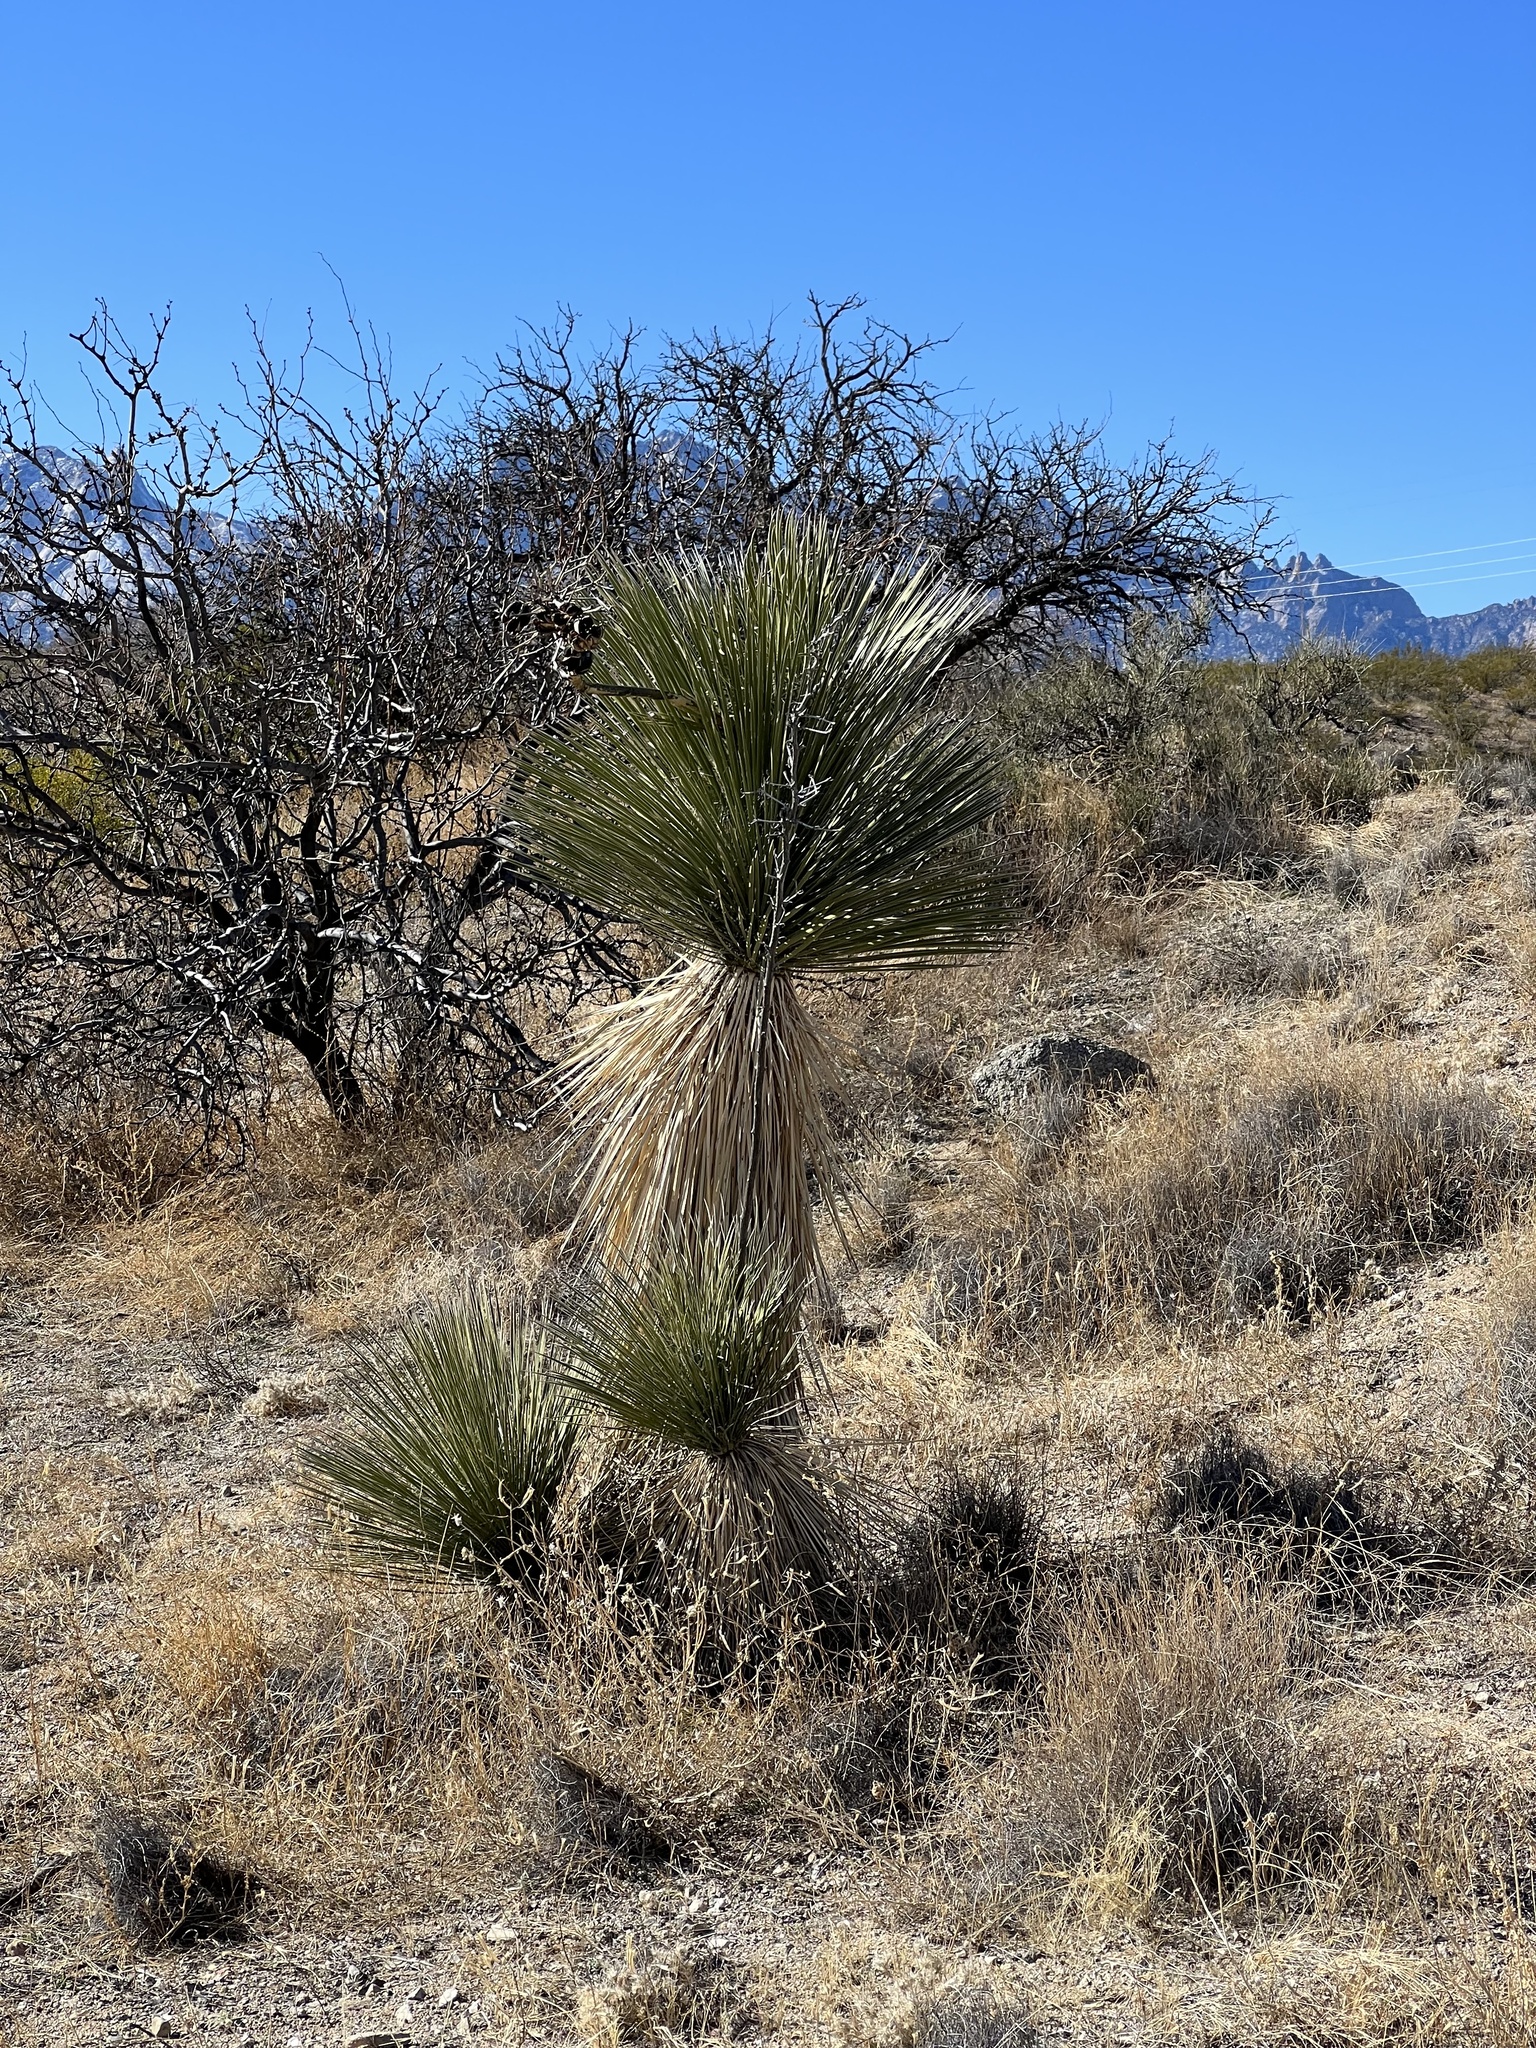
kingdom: Plantae
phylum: Tracheophyta
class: Liliopsida
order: Asparagales
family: Asparagaceae
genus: Yucca
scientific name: Yucca elata
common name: Palmella
